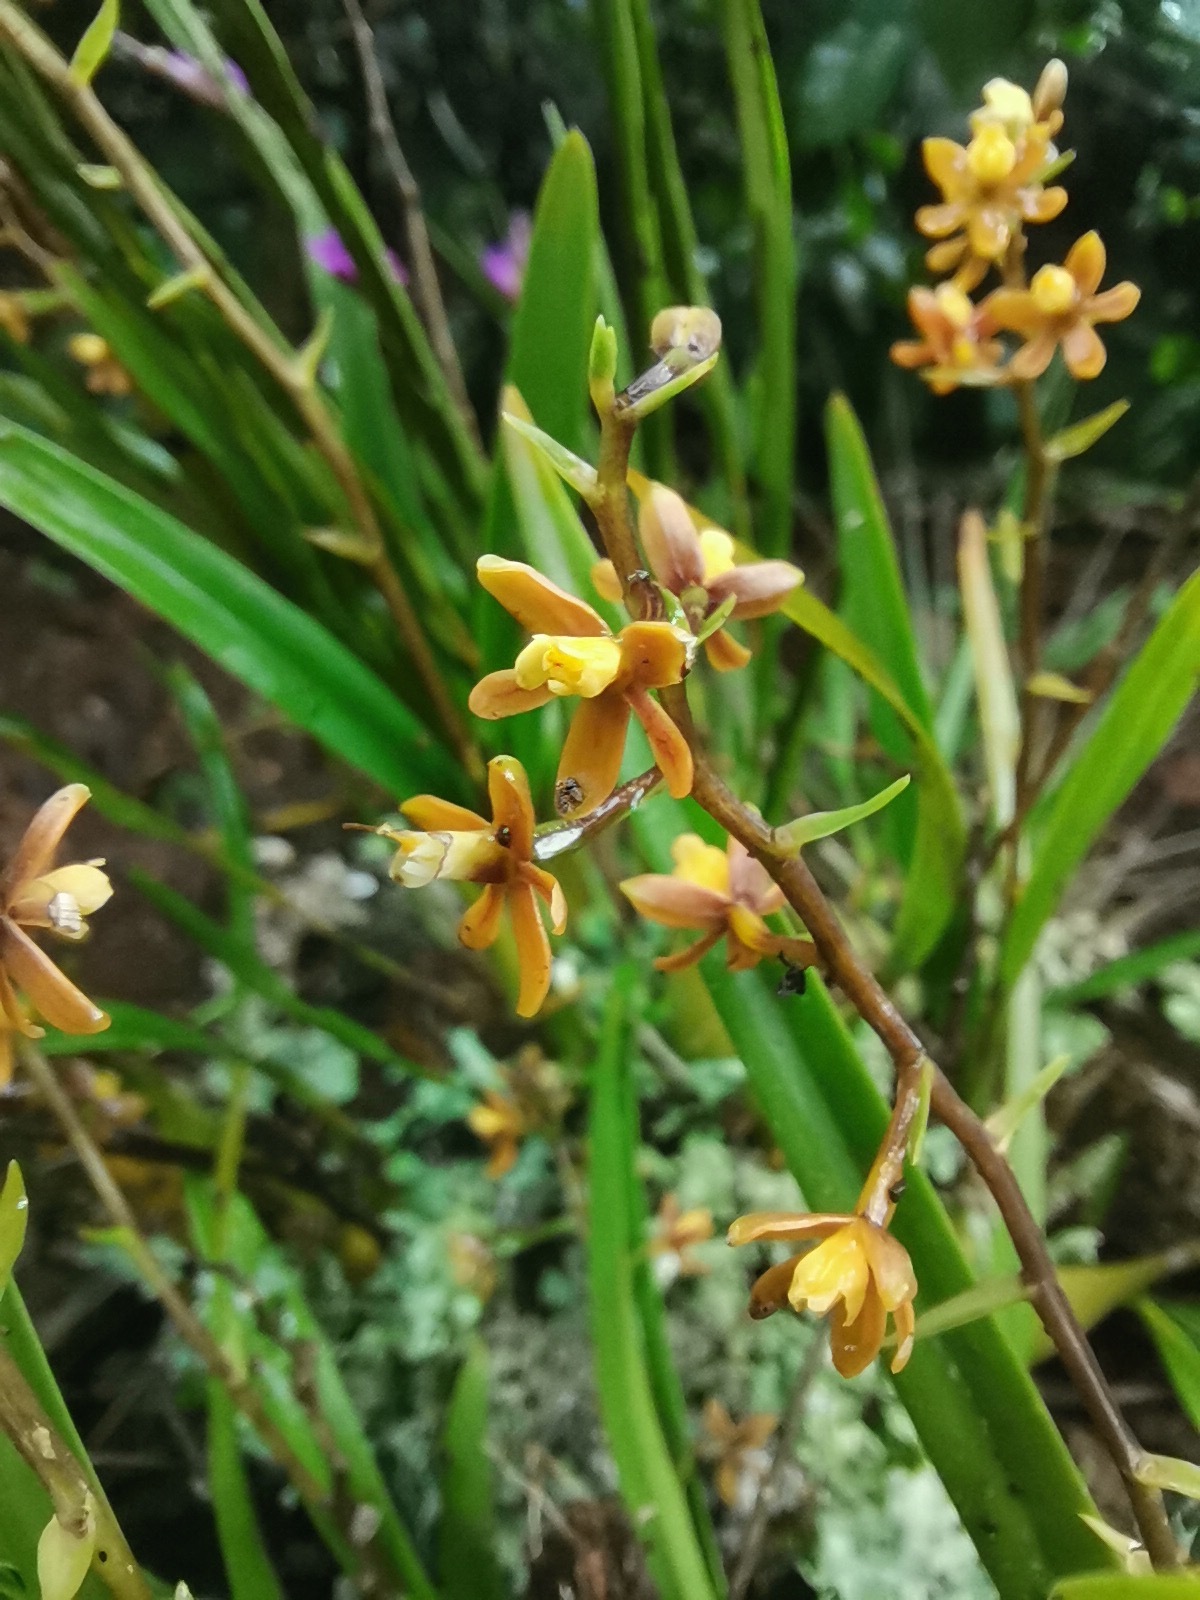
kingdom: Plantae
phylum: Tracheophyta
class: Liliopsida
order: Asparagales
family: Orchidaceae
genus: Prosthechea
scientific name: Prosthechea ochracea
